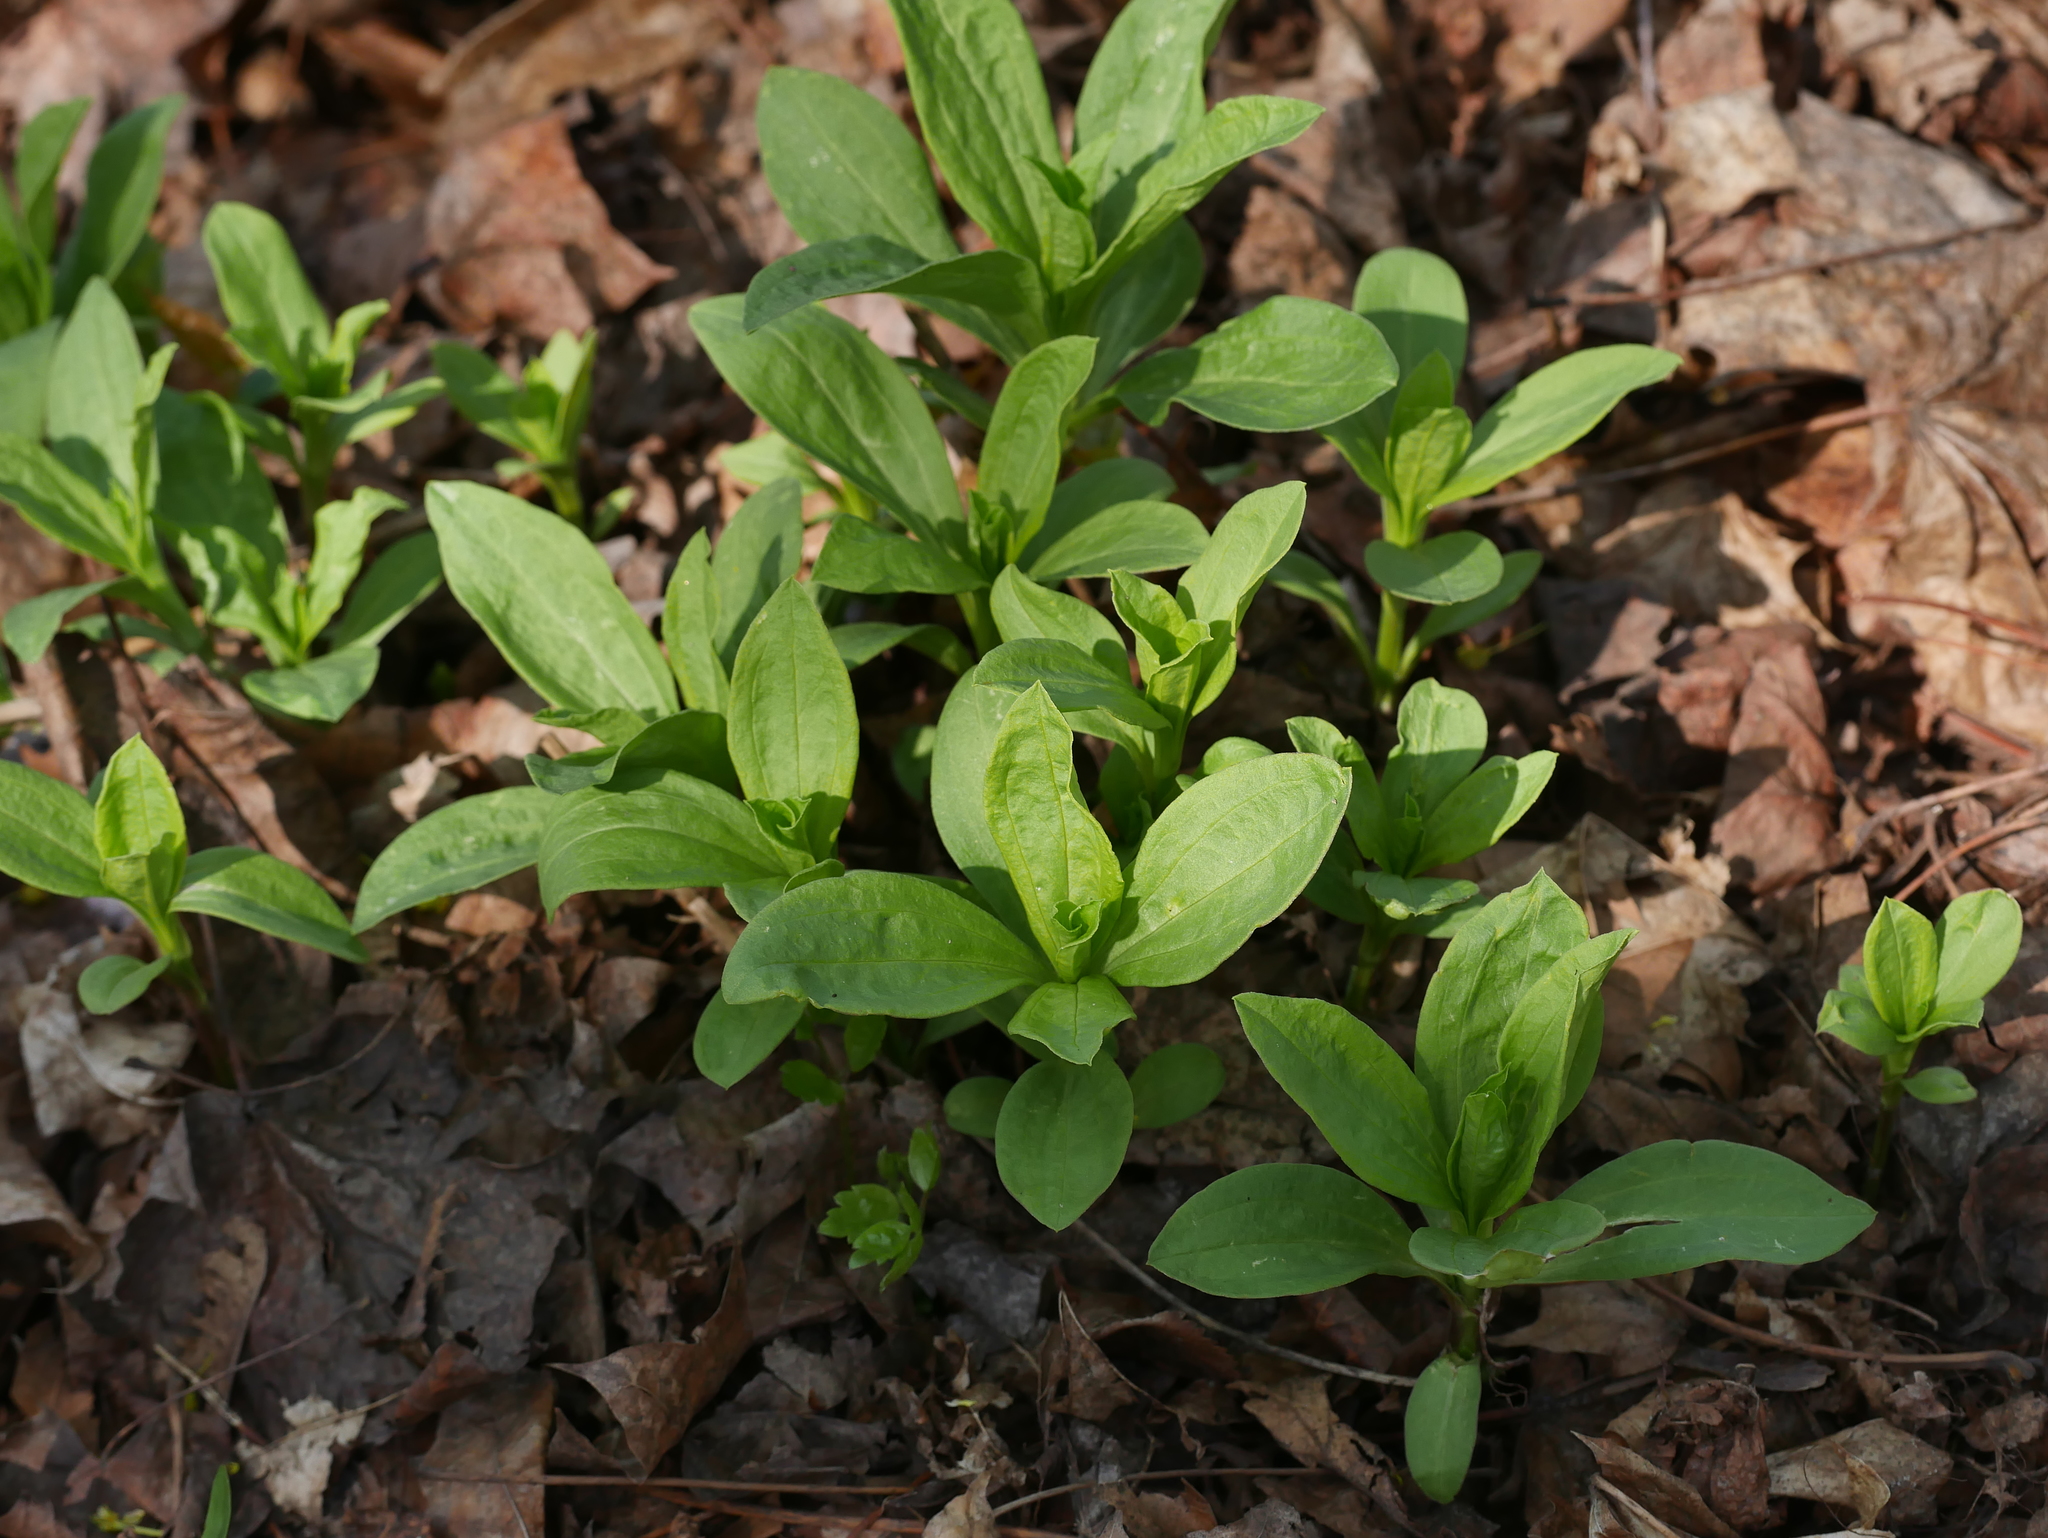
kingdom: Plantae
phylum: Tracheophyta
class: Magnoliopsida
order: Caryophyllales
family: Caryophyllaceae
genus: Saponaria
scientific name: Saponaria officinalis
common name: Soapwort
